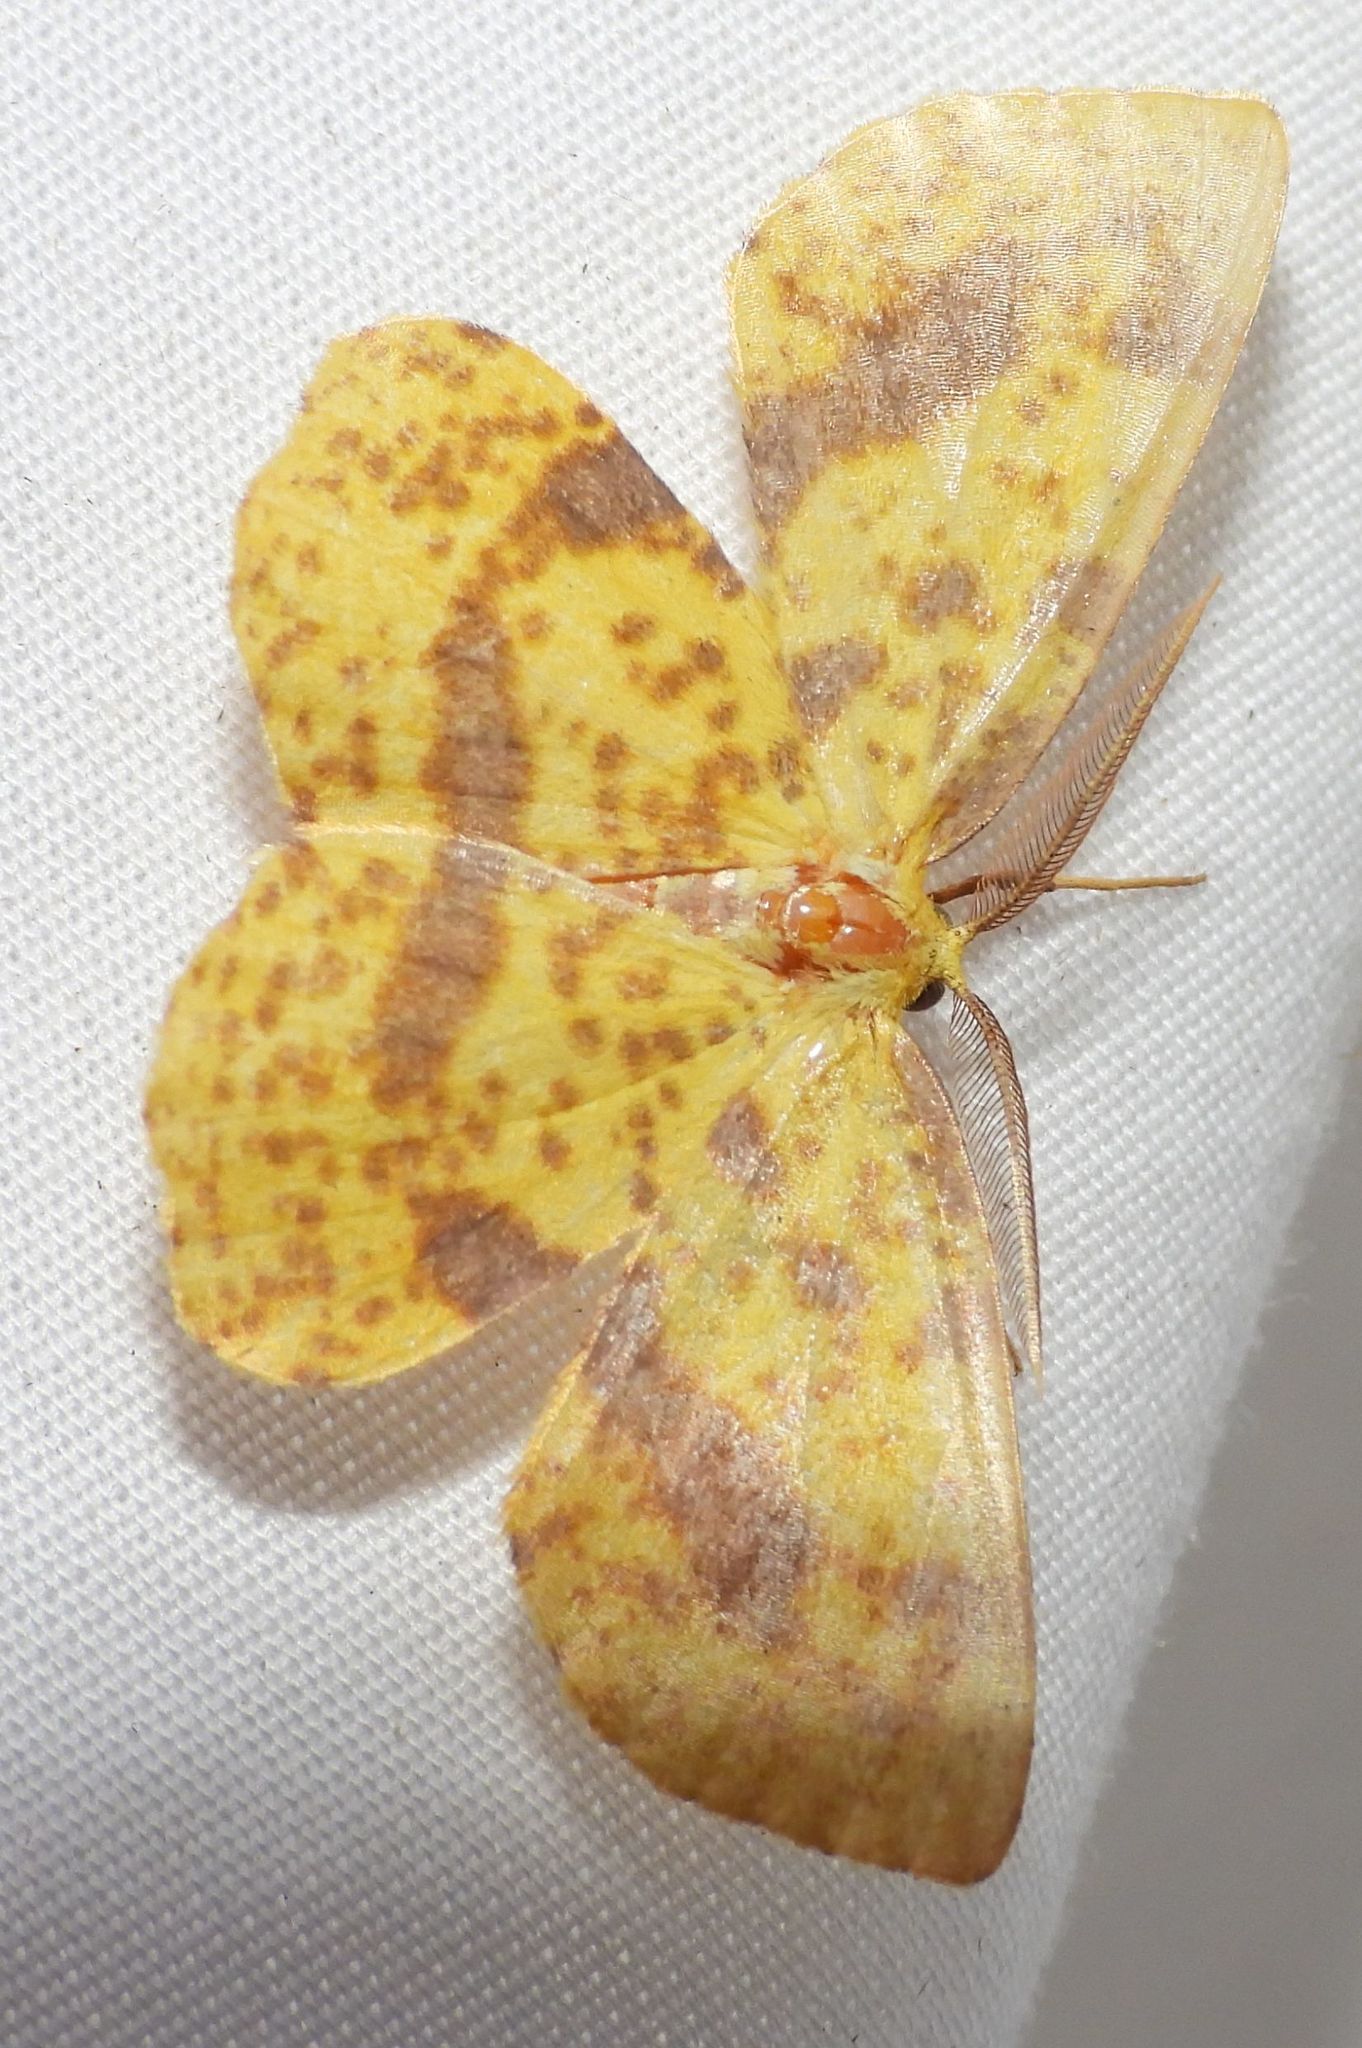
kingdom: Animalia
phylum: Arthropoda
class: Insecta
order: Lepidoptera
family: Geometridae
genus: Xanthotype
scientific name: Xanthotype
